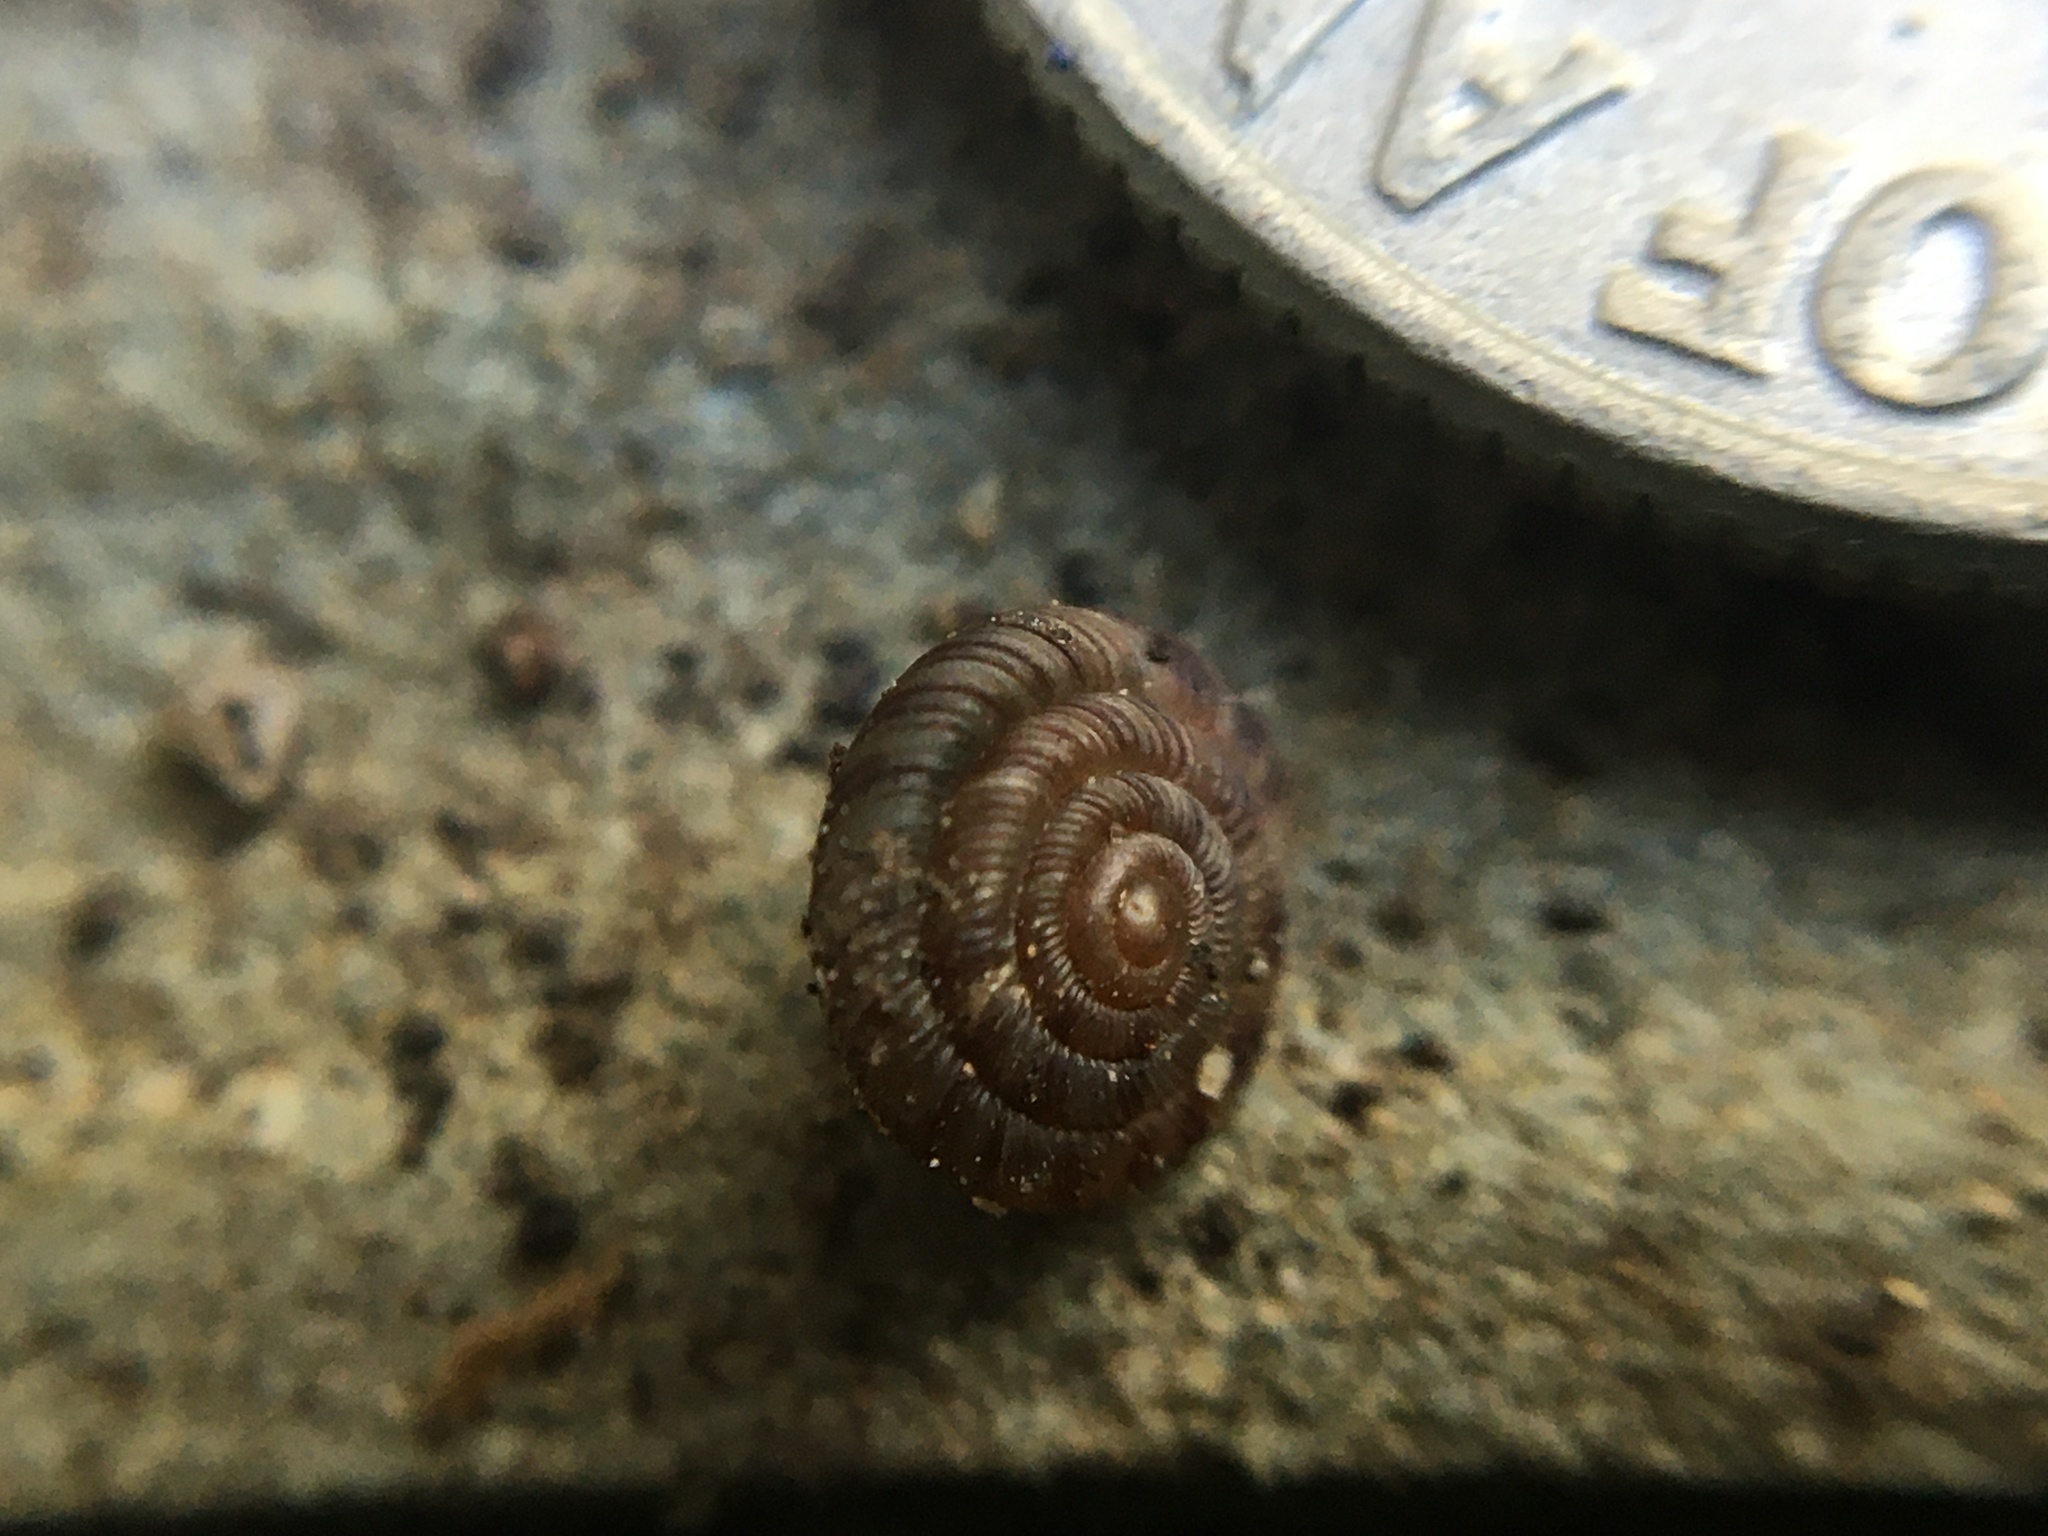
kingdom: Animalia
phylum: Mollusca
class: Gastropoda
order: Stylommatophora
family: Discidae
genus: Discus
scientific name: Discus rotundatus
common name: Rounded snail
